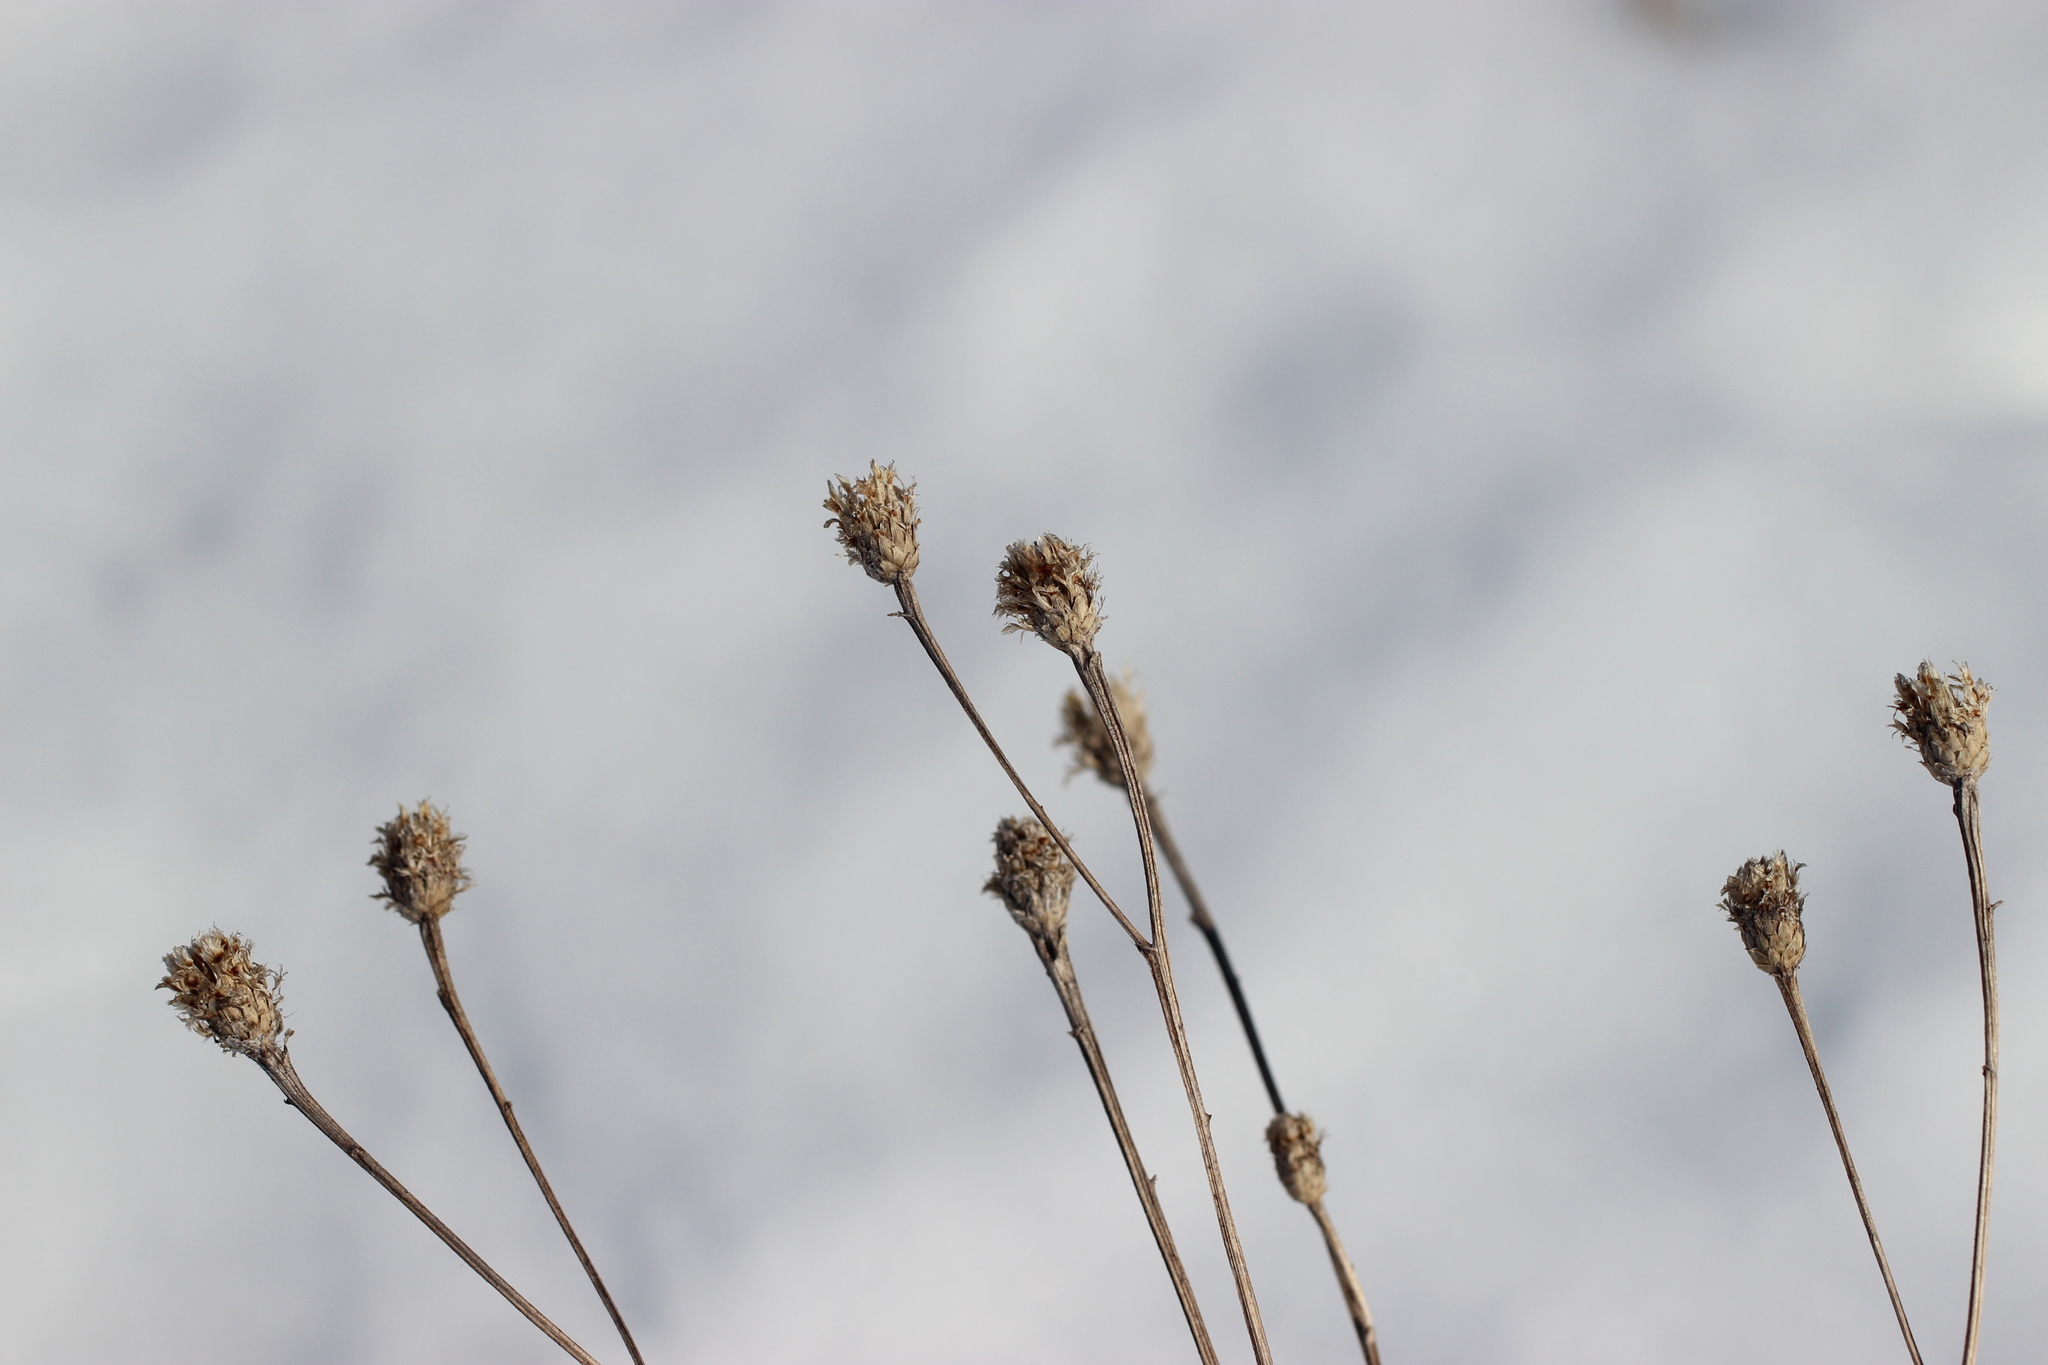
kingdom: Plantae
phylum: Tracheophyta
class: Magnoliopsida
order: Asterales
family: Asteraceae
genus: Centaurea
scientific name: Centaurea phrygia
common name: Wig knapweed
